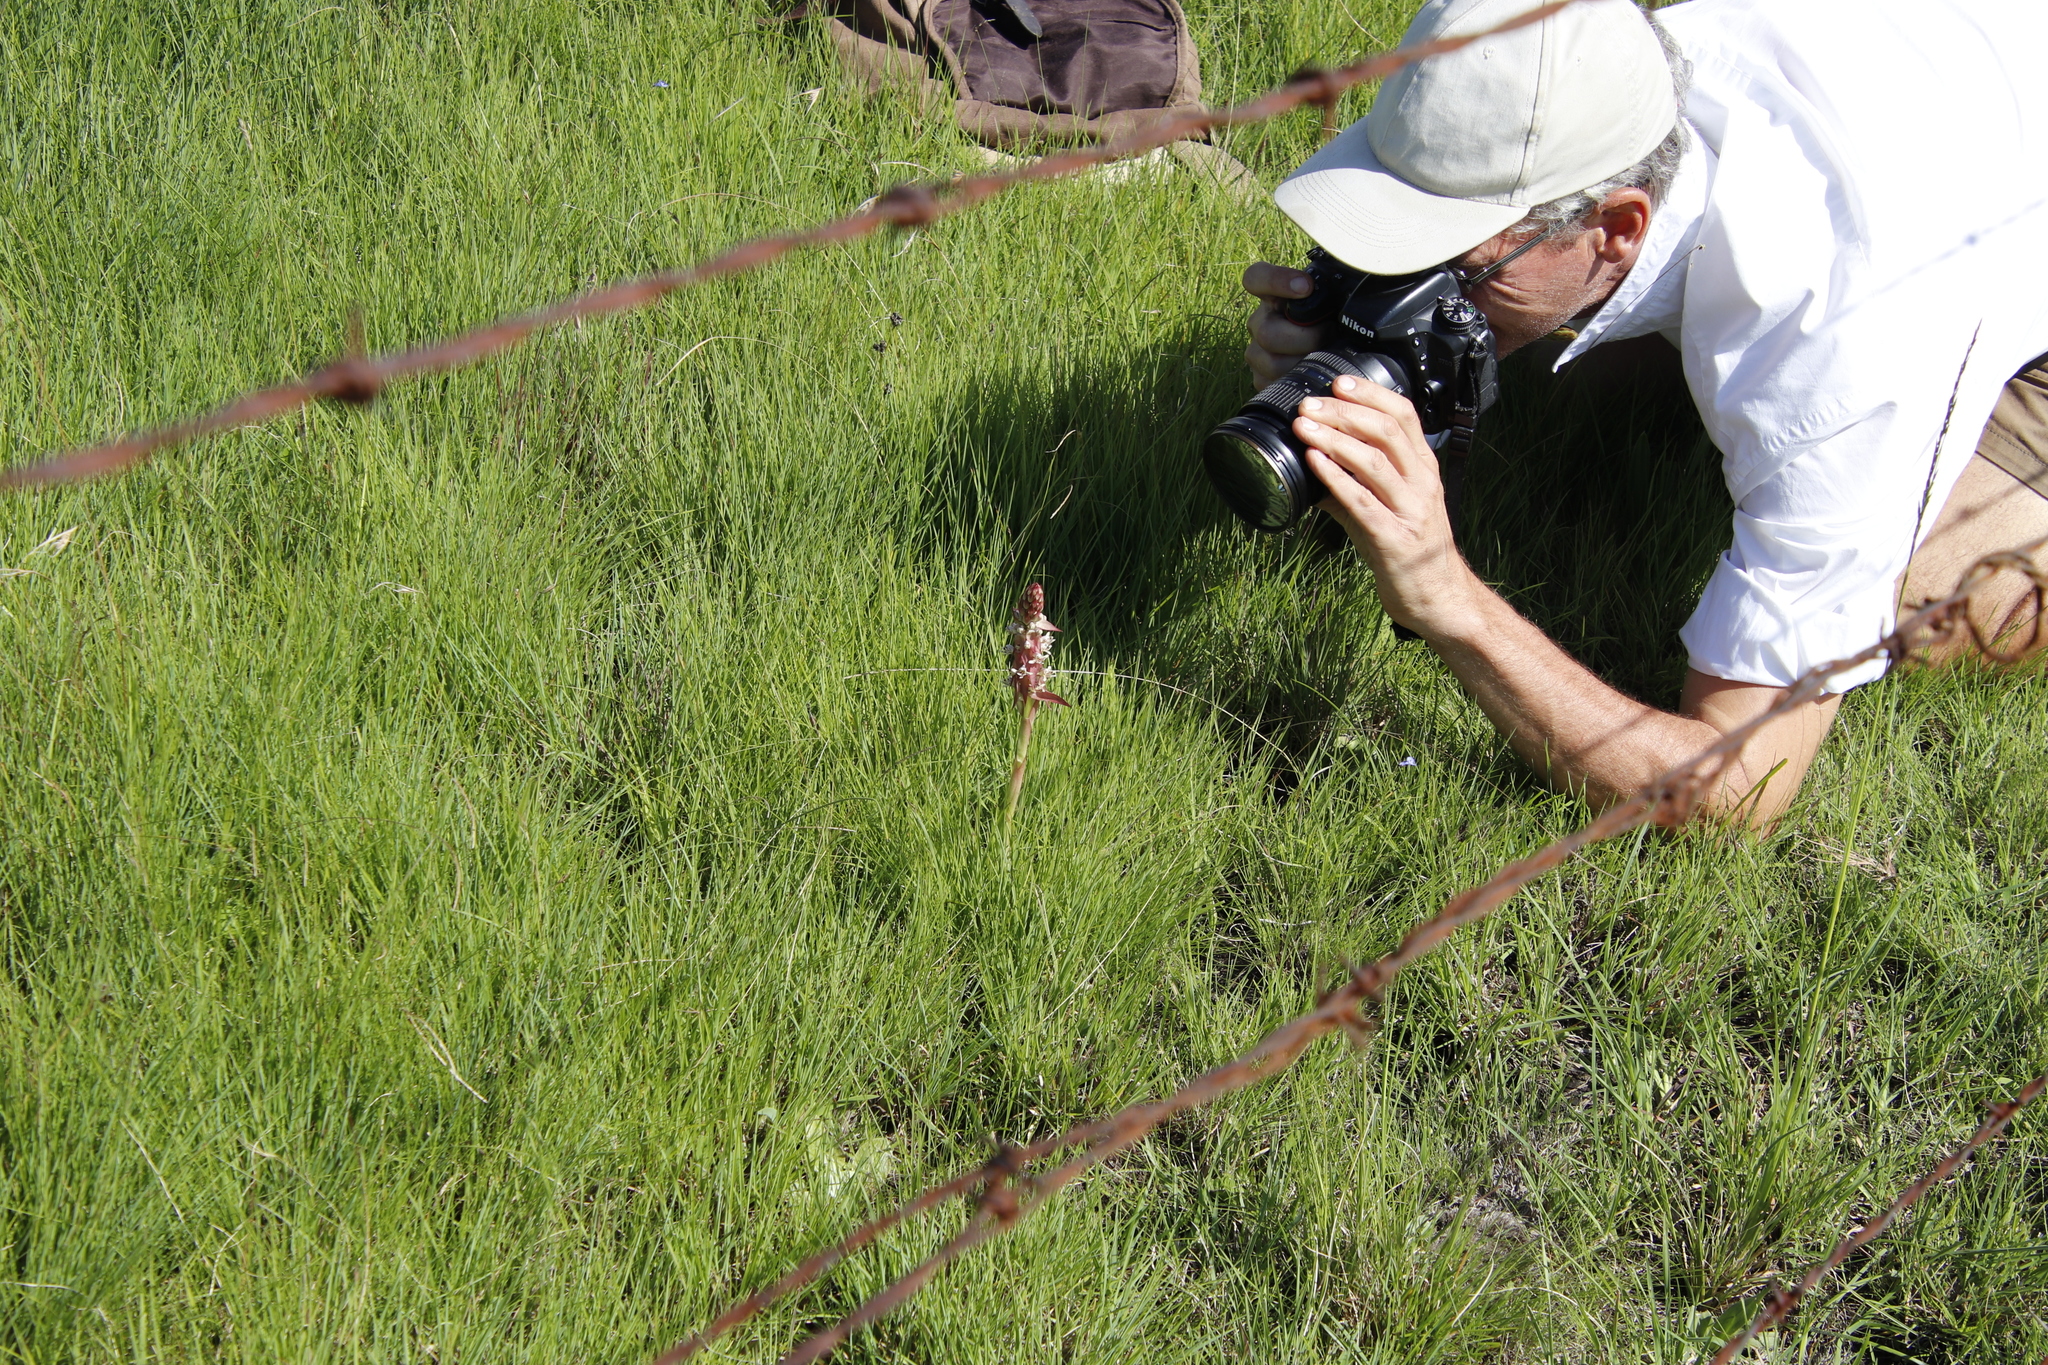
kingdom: Plantae
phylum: Tracheophyta
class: Liliopsida
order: Asparagales
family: Orchidaceae
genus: Satyrium
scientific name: Satyrium cristatum
